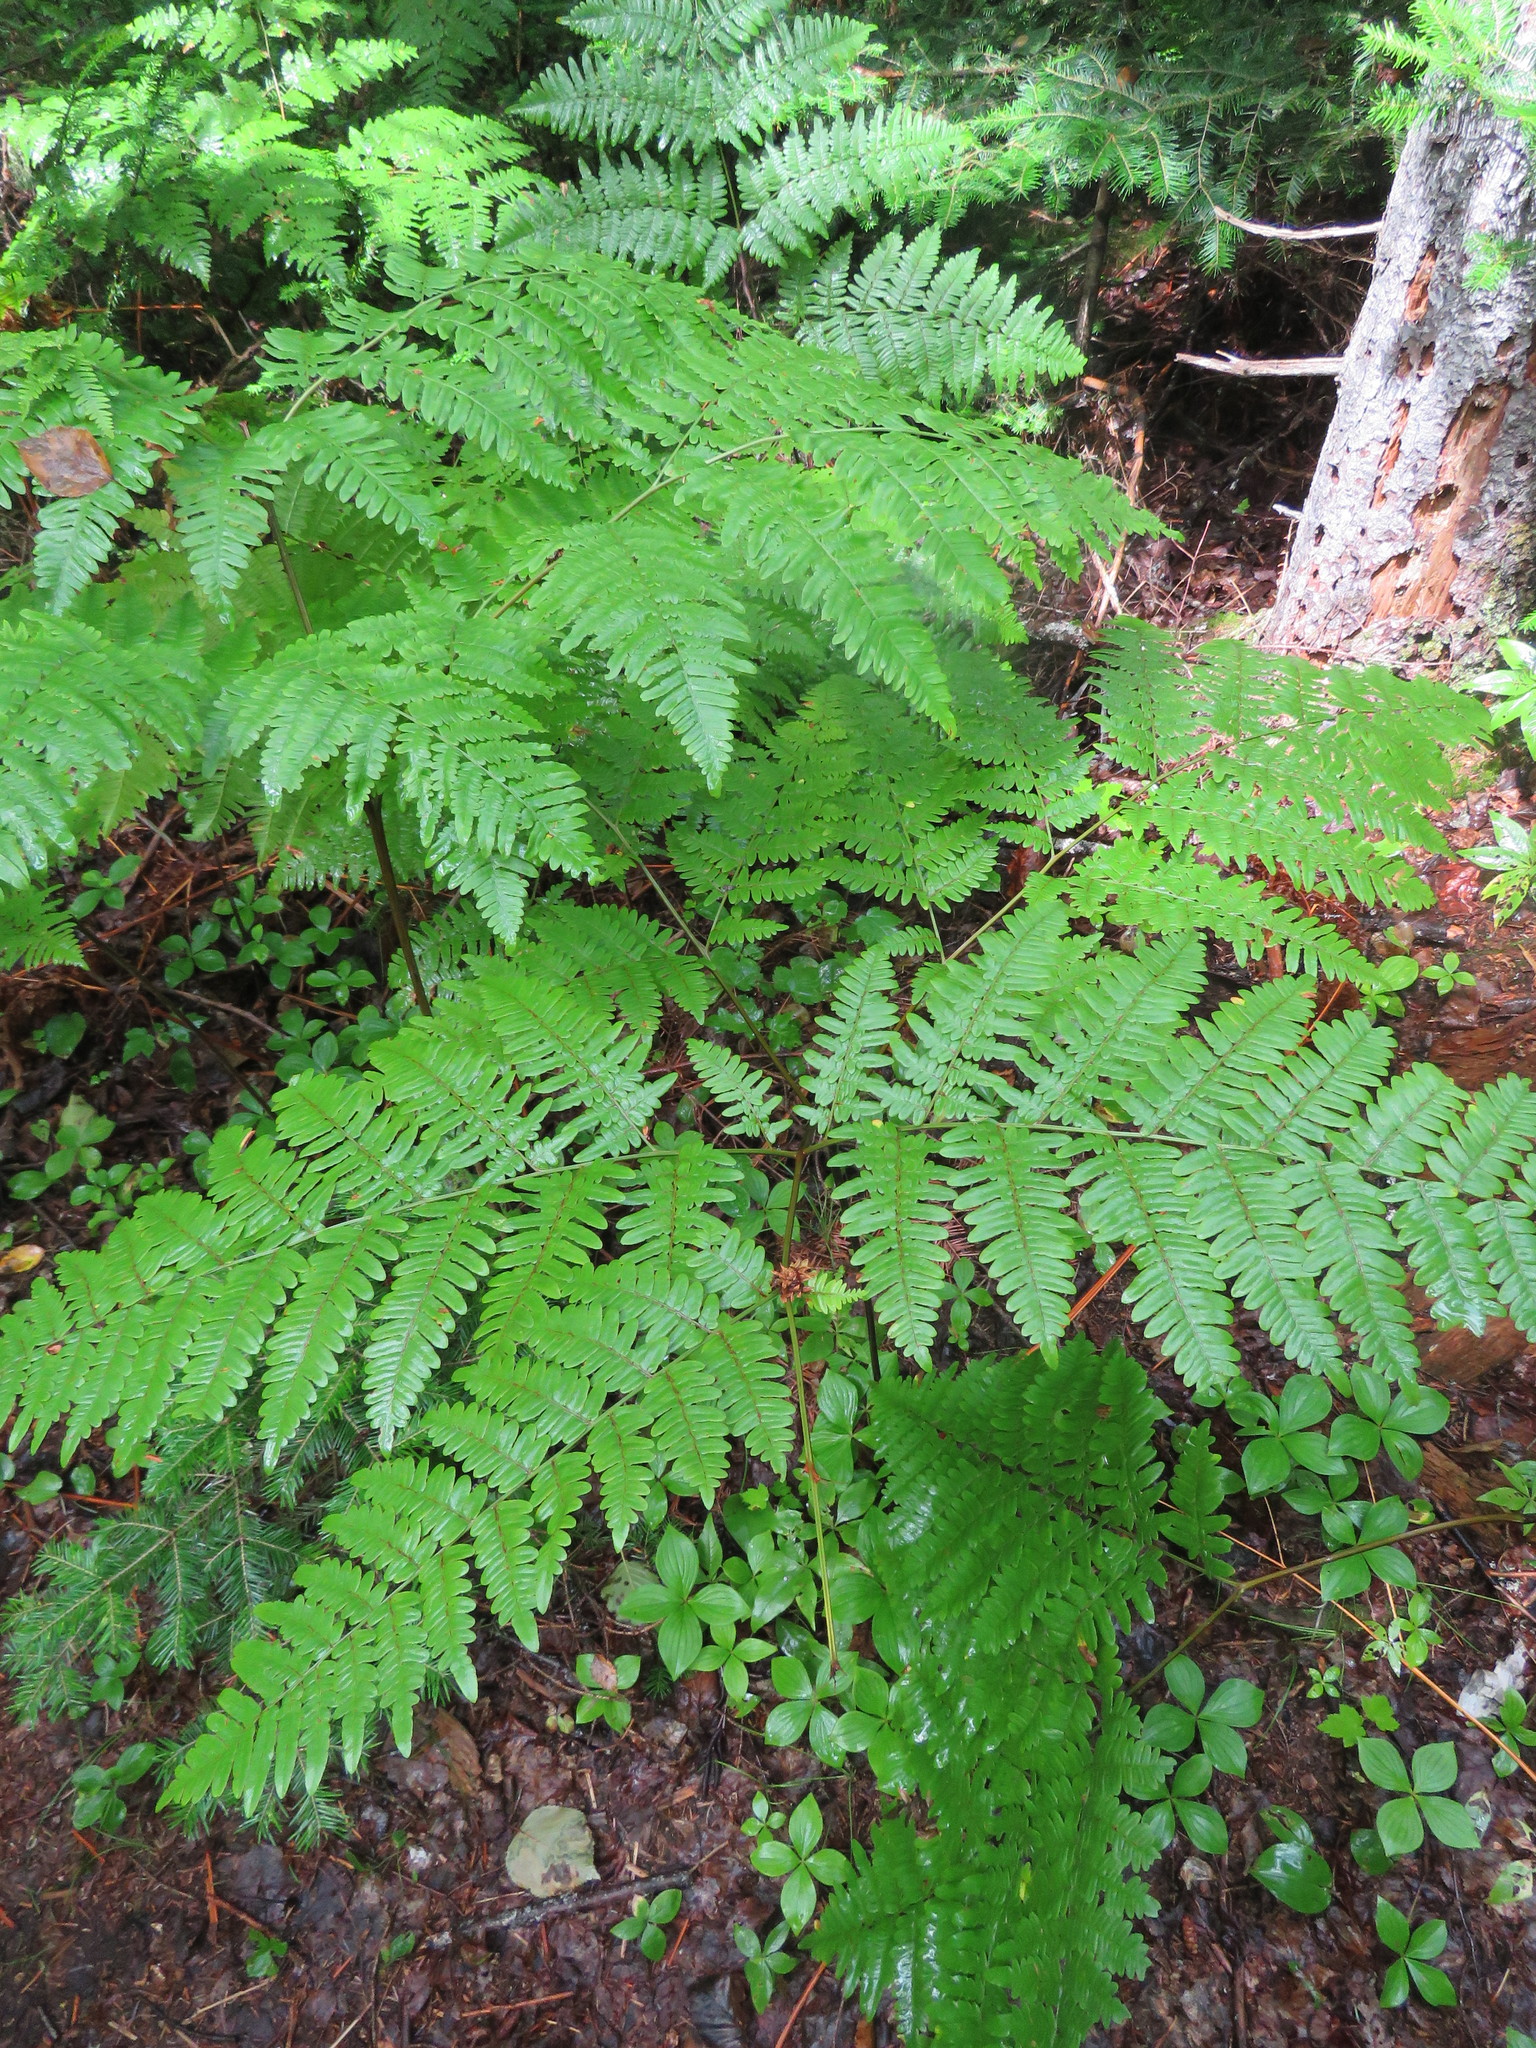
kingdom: Plantae
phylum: Tracheophyta
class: Polypodiopsida
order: Polypodiales
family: Dennstaedtiaceae
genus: Pteridium
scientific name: Pteridium aquilinum
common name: Bracken
